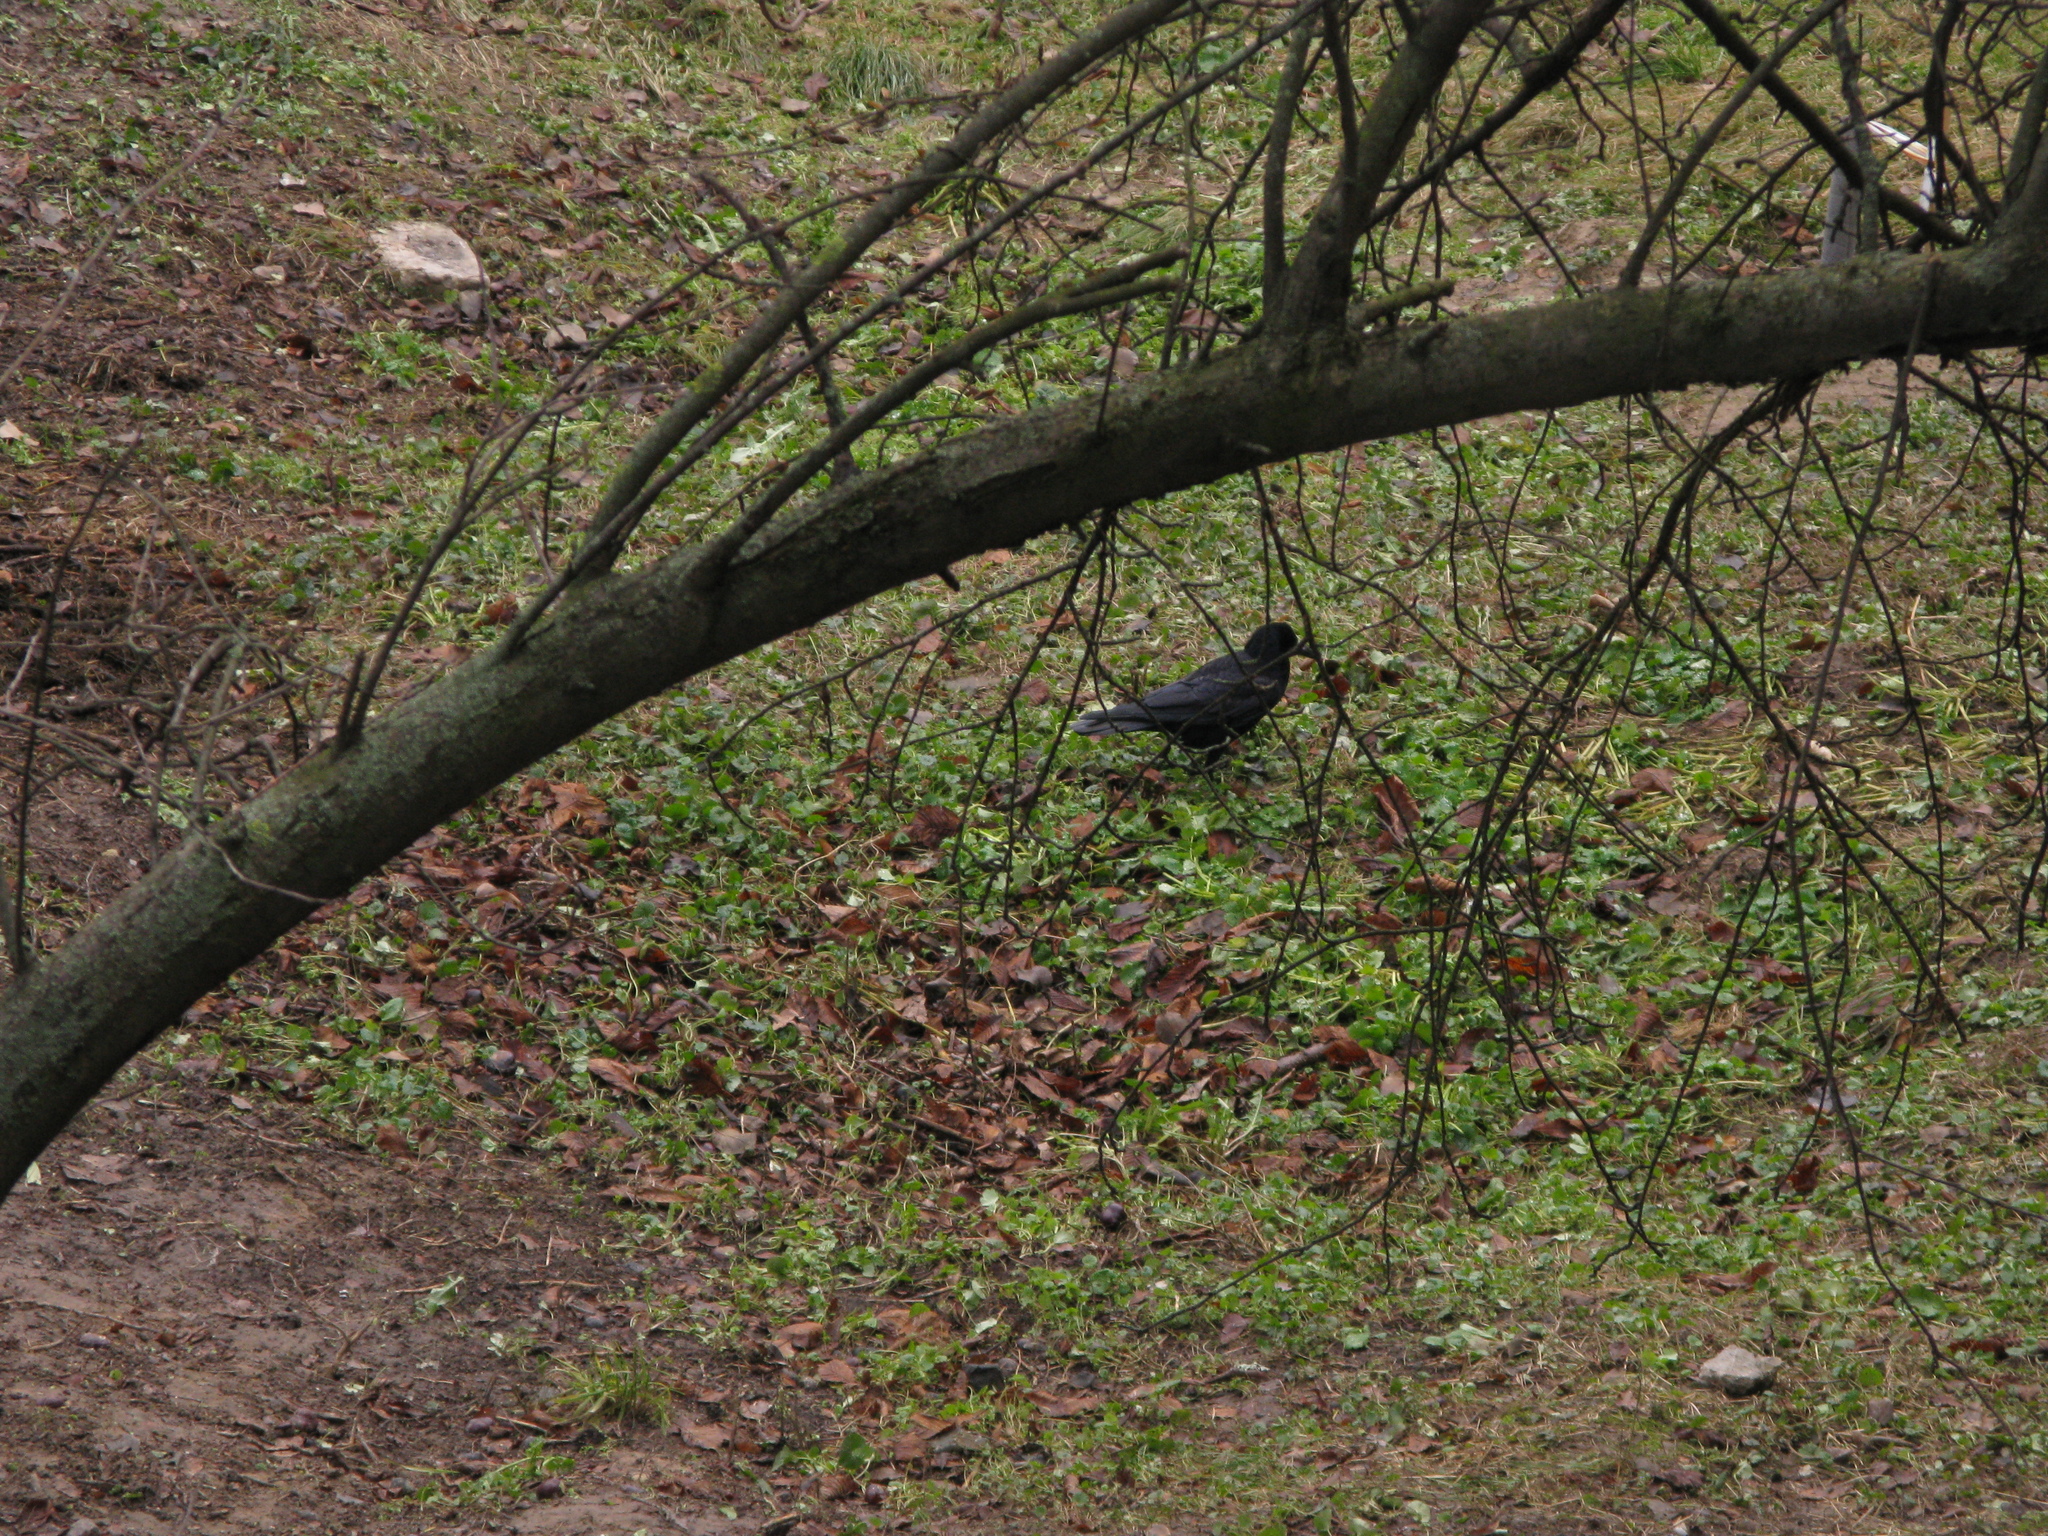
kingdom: Animalia
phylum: Chordata
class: Aves
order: Passeriformes
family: Corvidae
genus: Corvus
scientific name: Corvus frugilegus
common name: Rook
